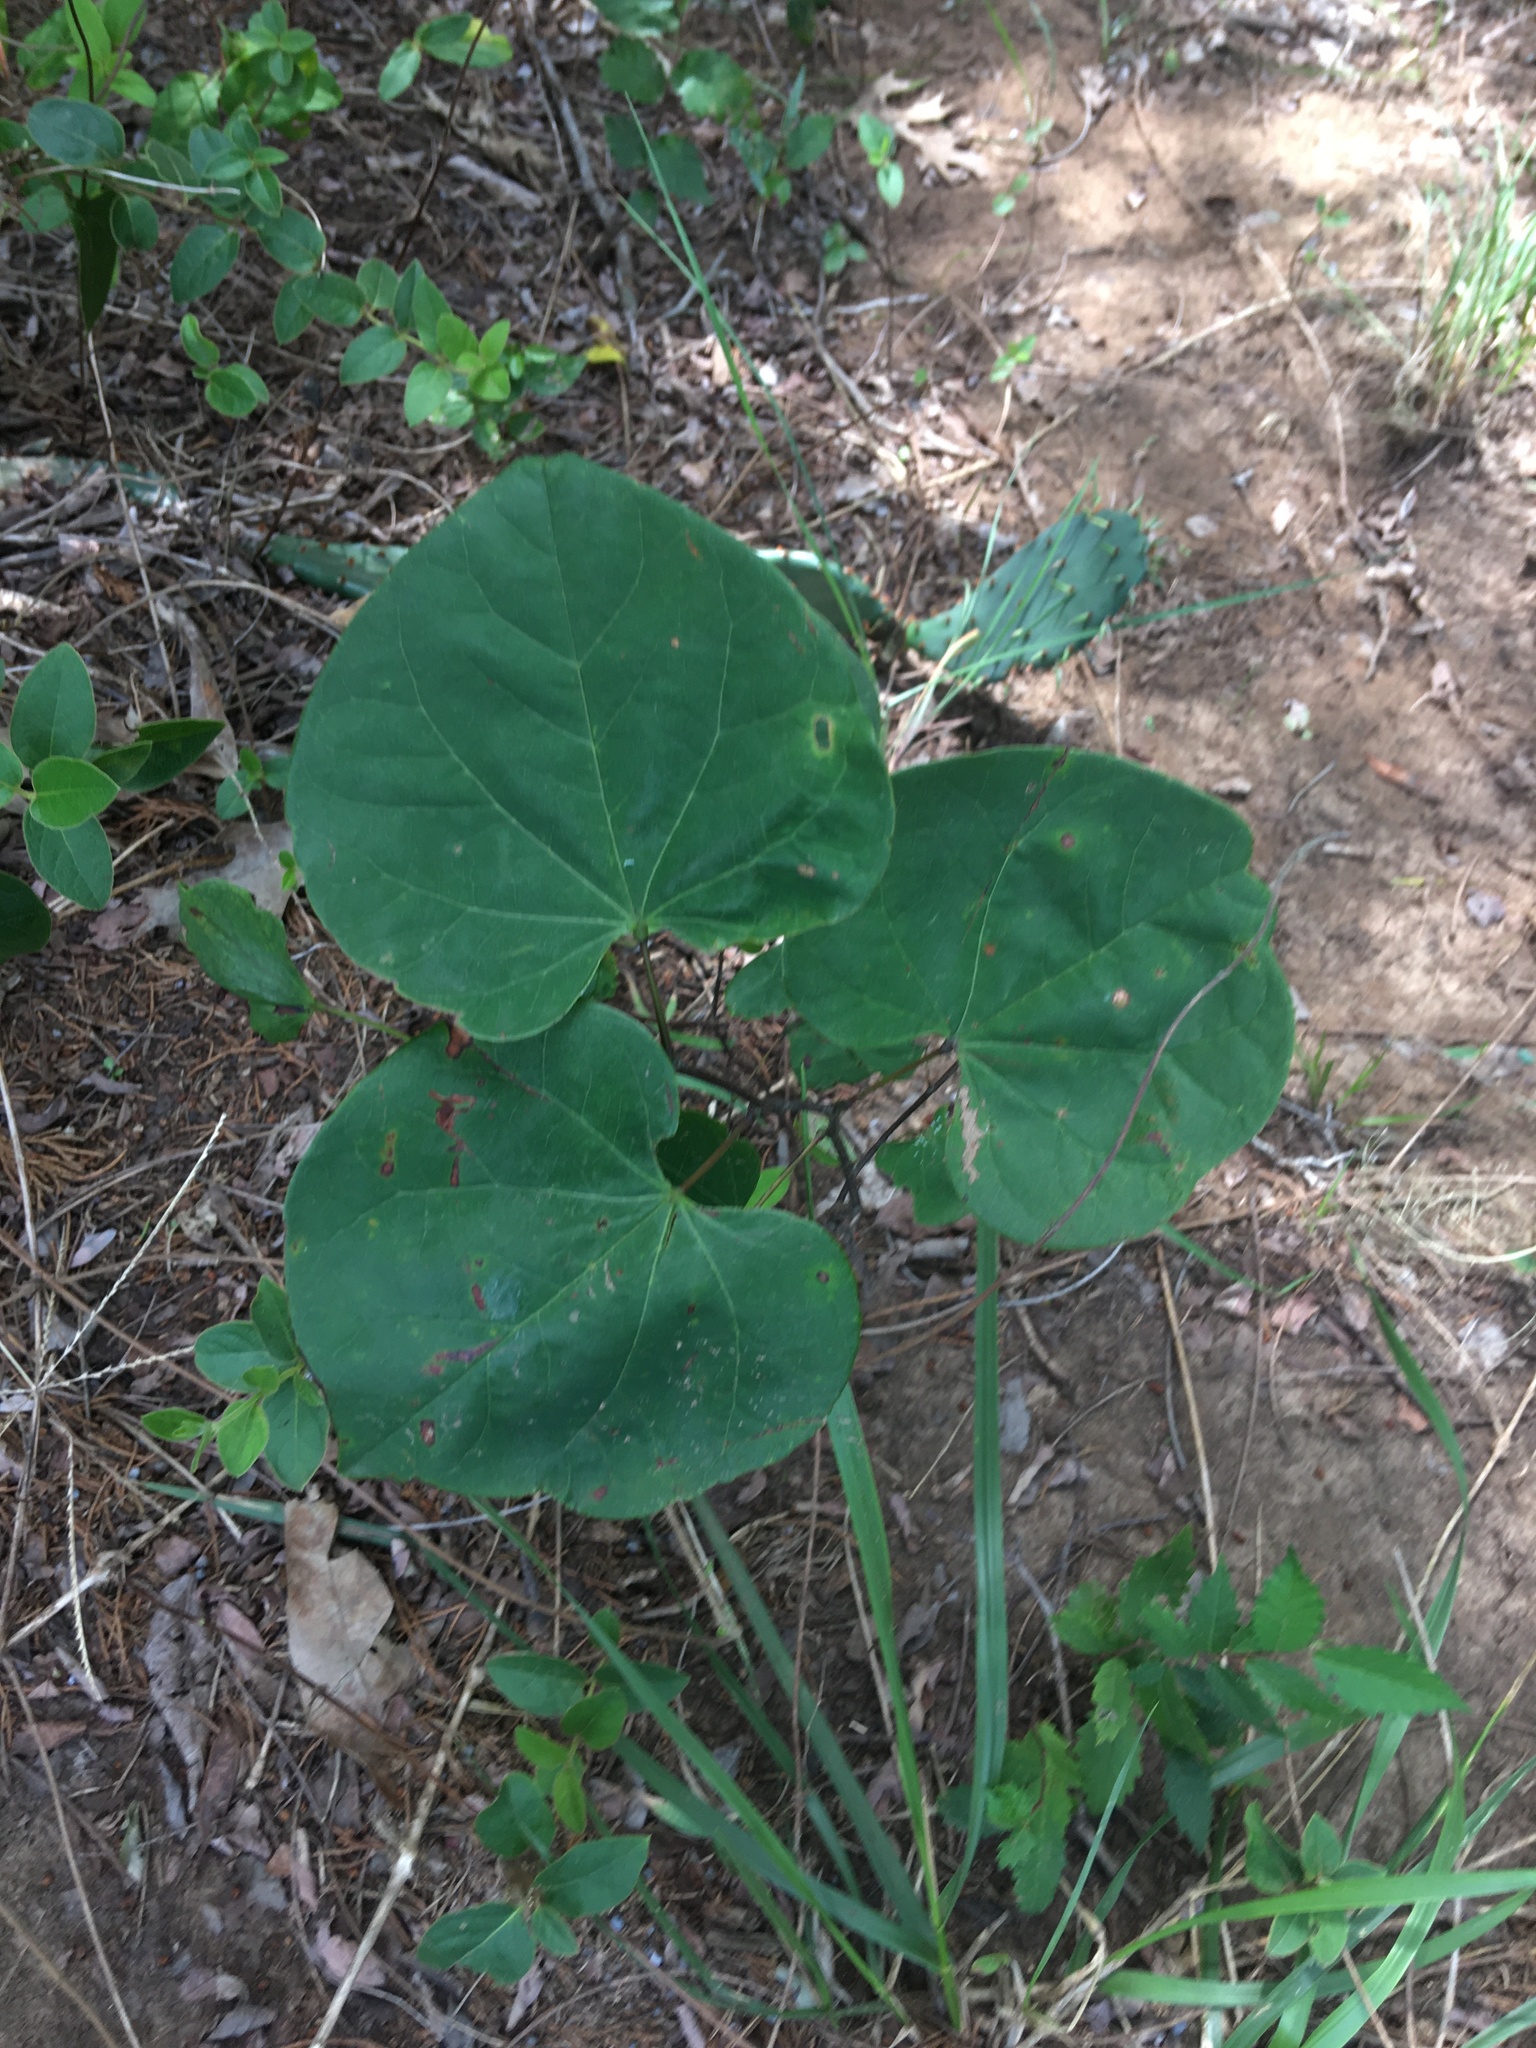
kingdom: Plantae
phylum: Tracheophyta
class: Magnoliopsida
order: Fabales
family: Fabaceae
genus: Cercis
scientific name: Cercis canadensis
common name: Eastern redbud
